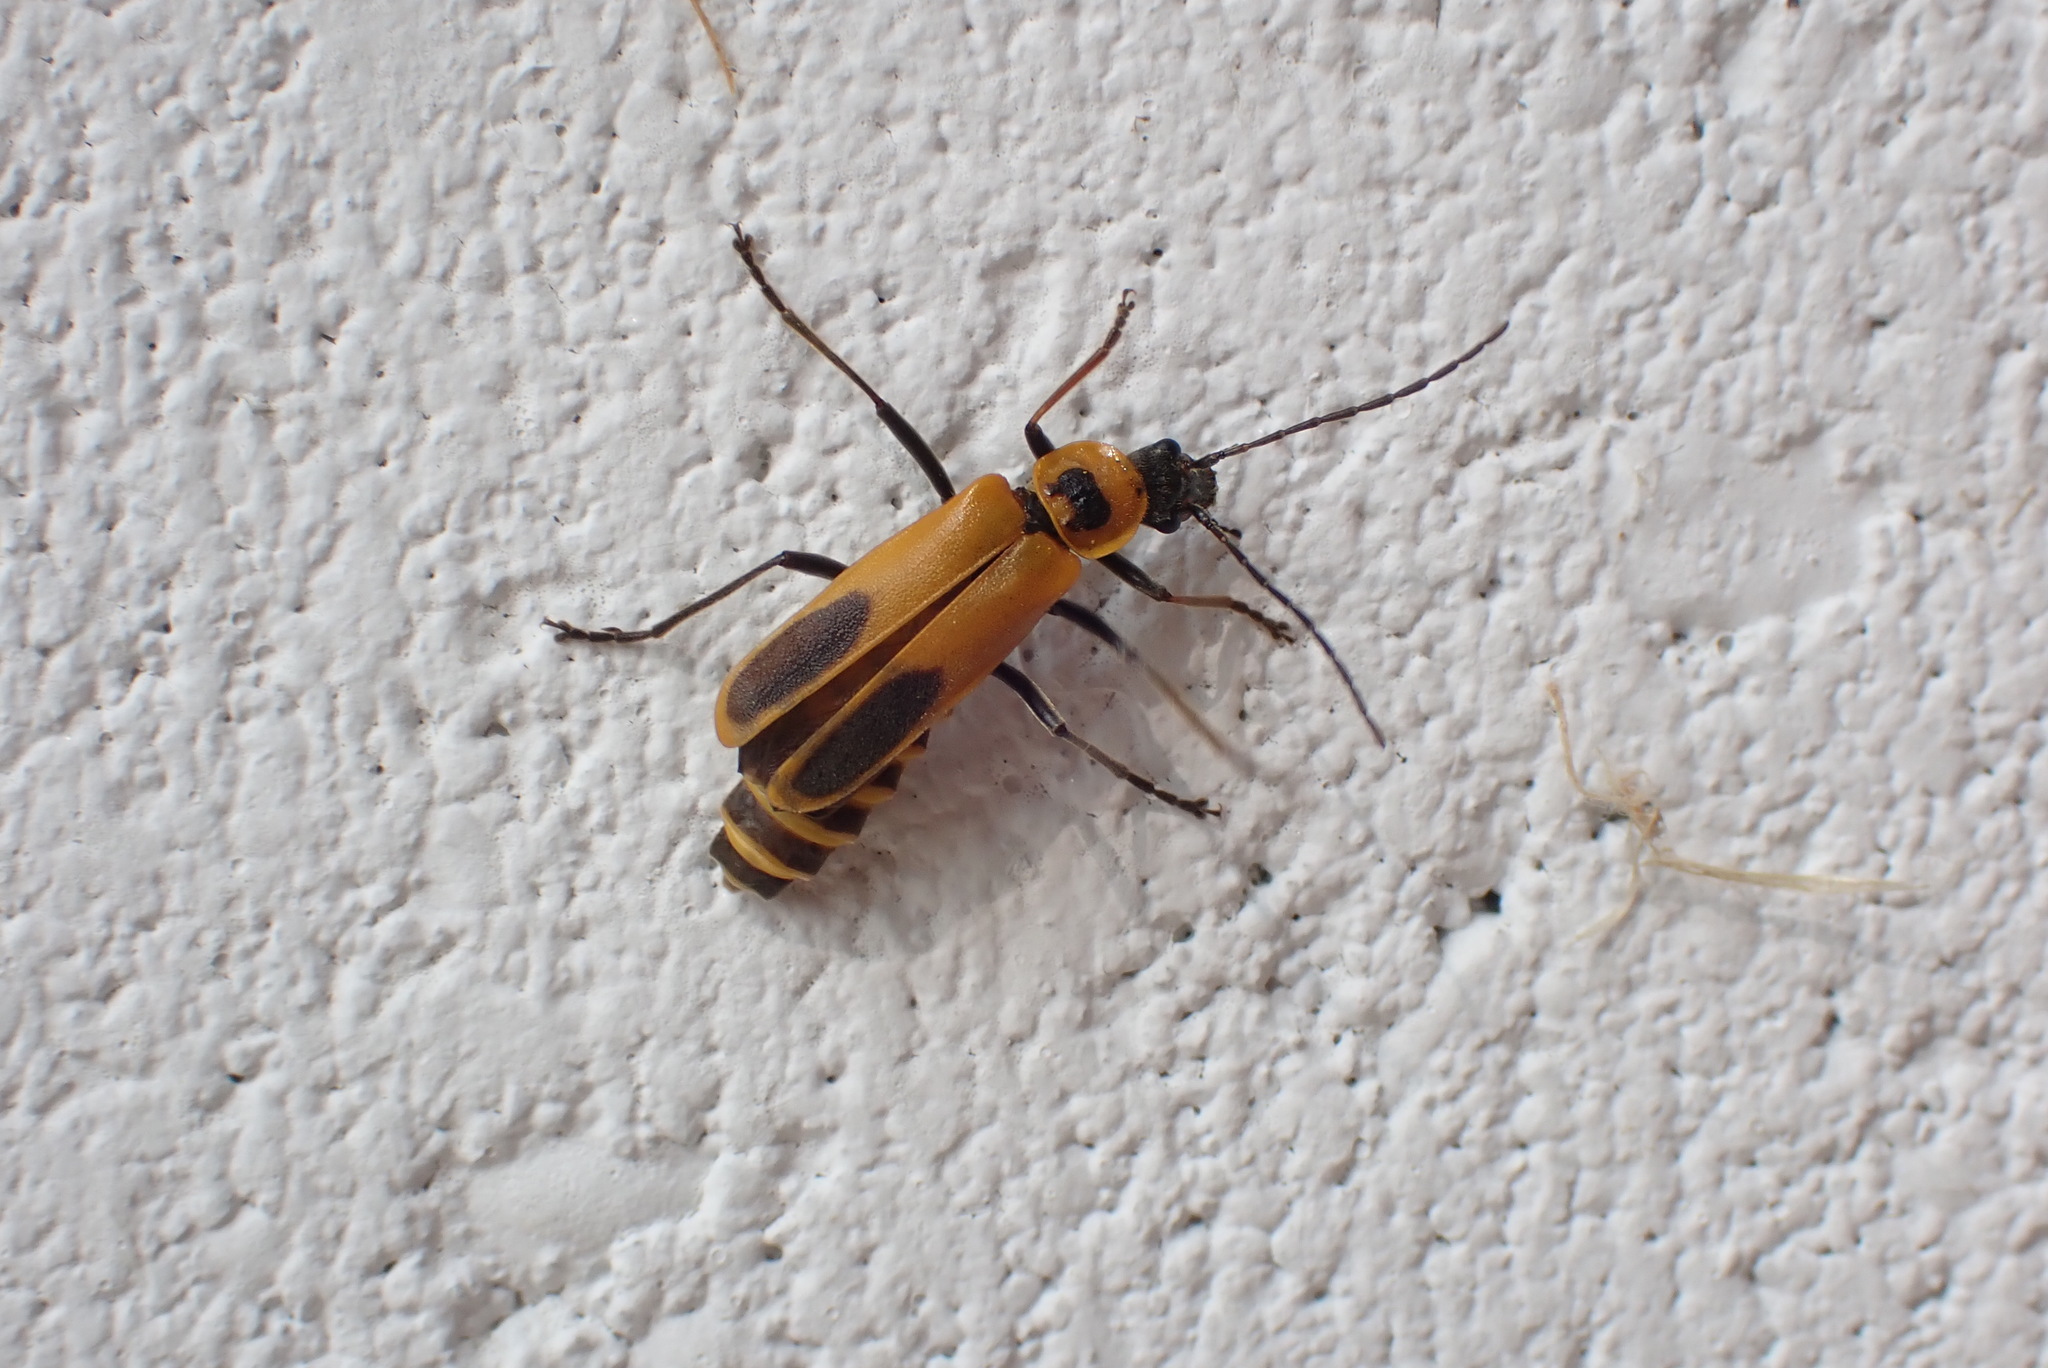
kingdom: Animalia
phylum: Arthropoda
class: Insecta
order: Coleoptera
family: Cantharidae
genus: Chauliognathus
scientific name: Chauliognathus pensylvanicus
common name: Goldenrod soldier beetle
